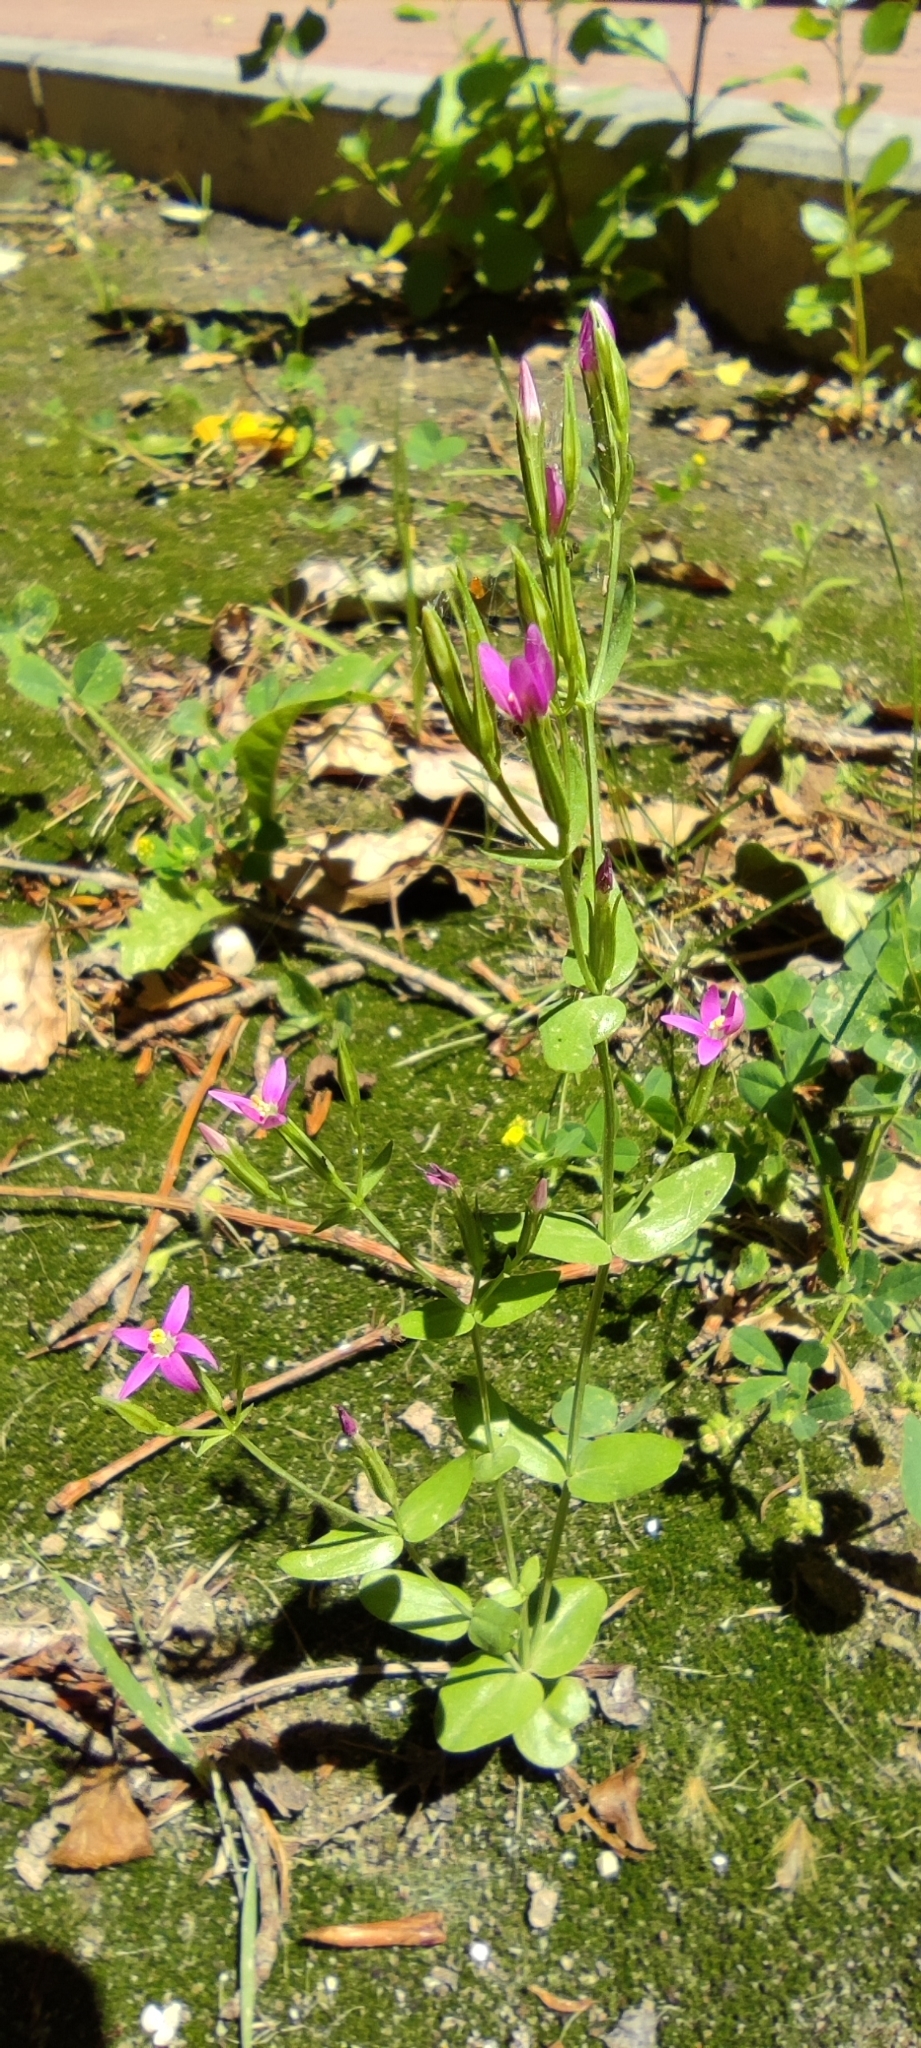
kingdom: Plantae
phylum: Tracheophyta
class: Magnoliopsida
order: Gentianales
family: Gentianaceae
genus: Centaurium
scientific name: Centaurium pulchellum
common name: Lesser centaury
